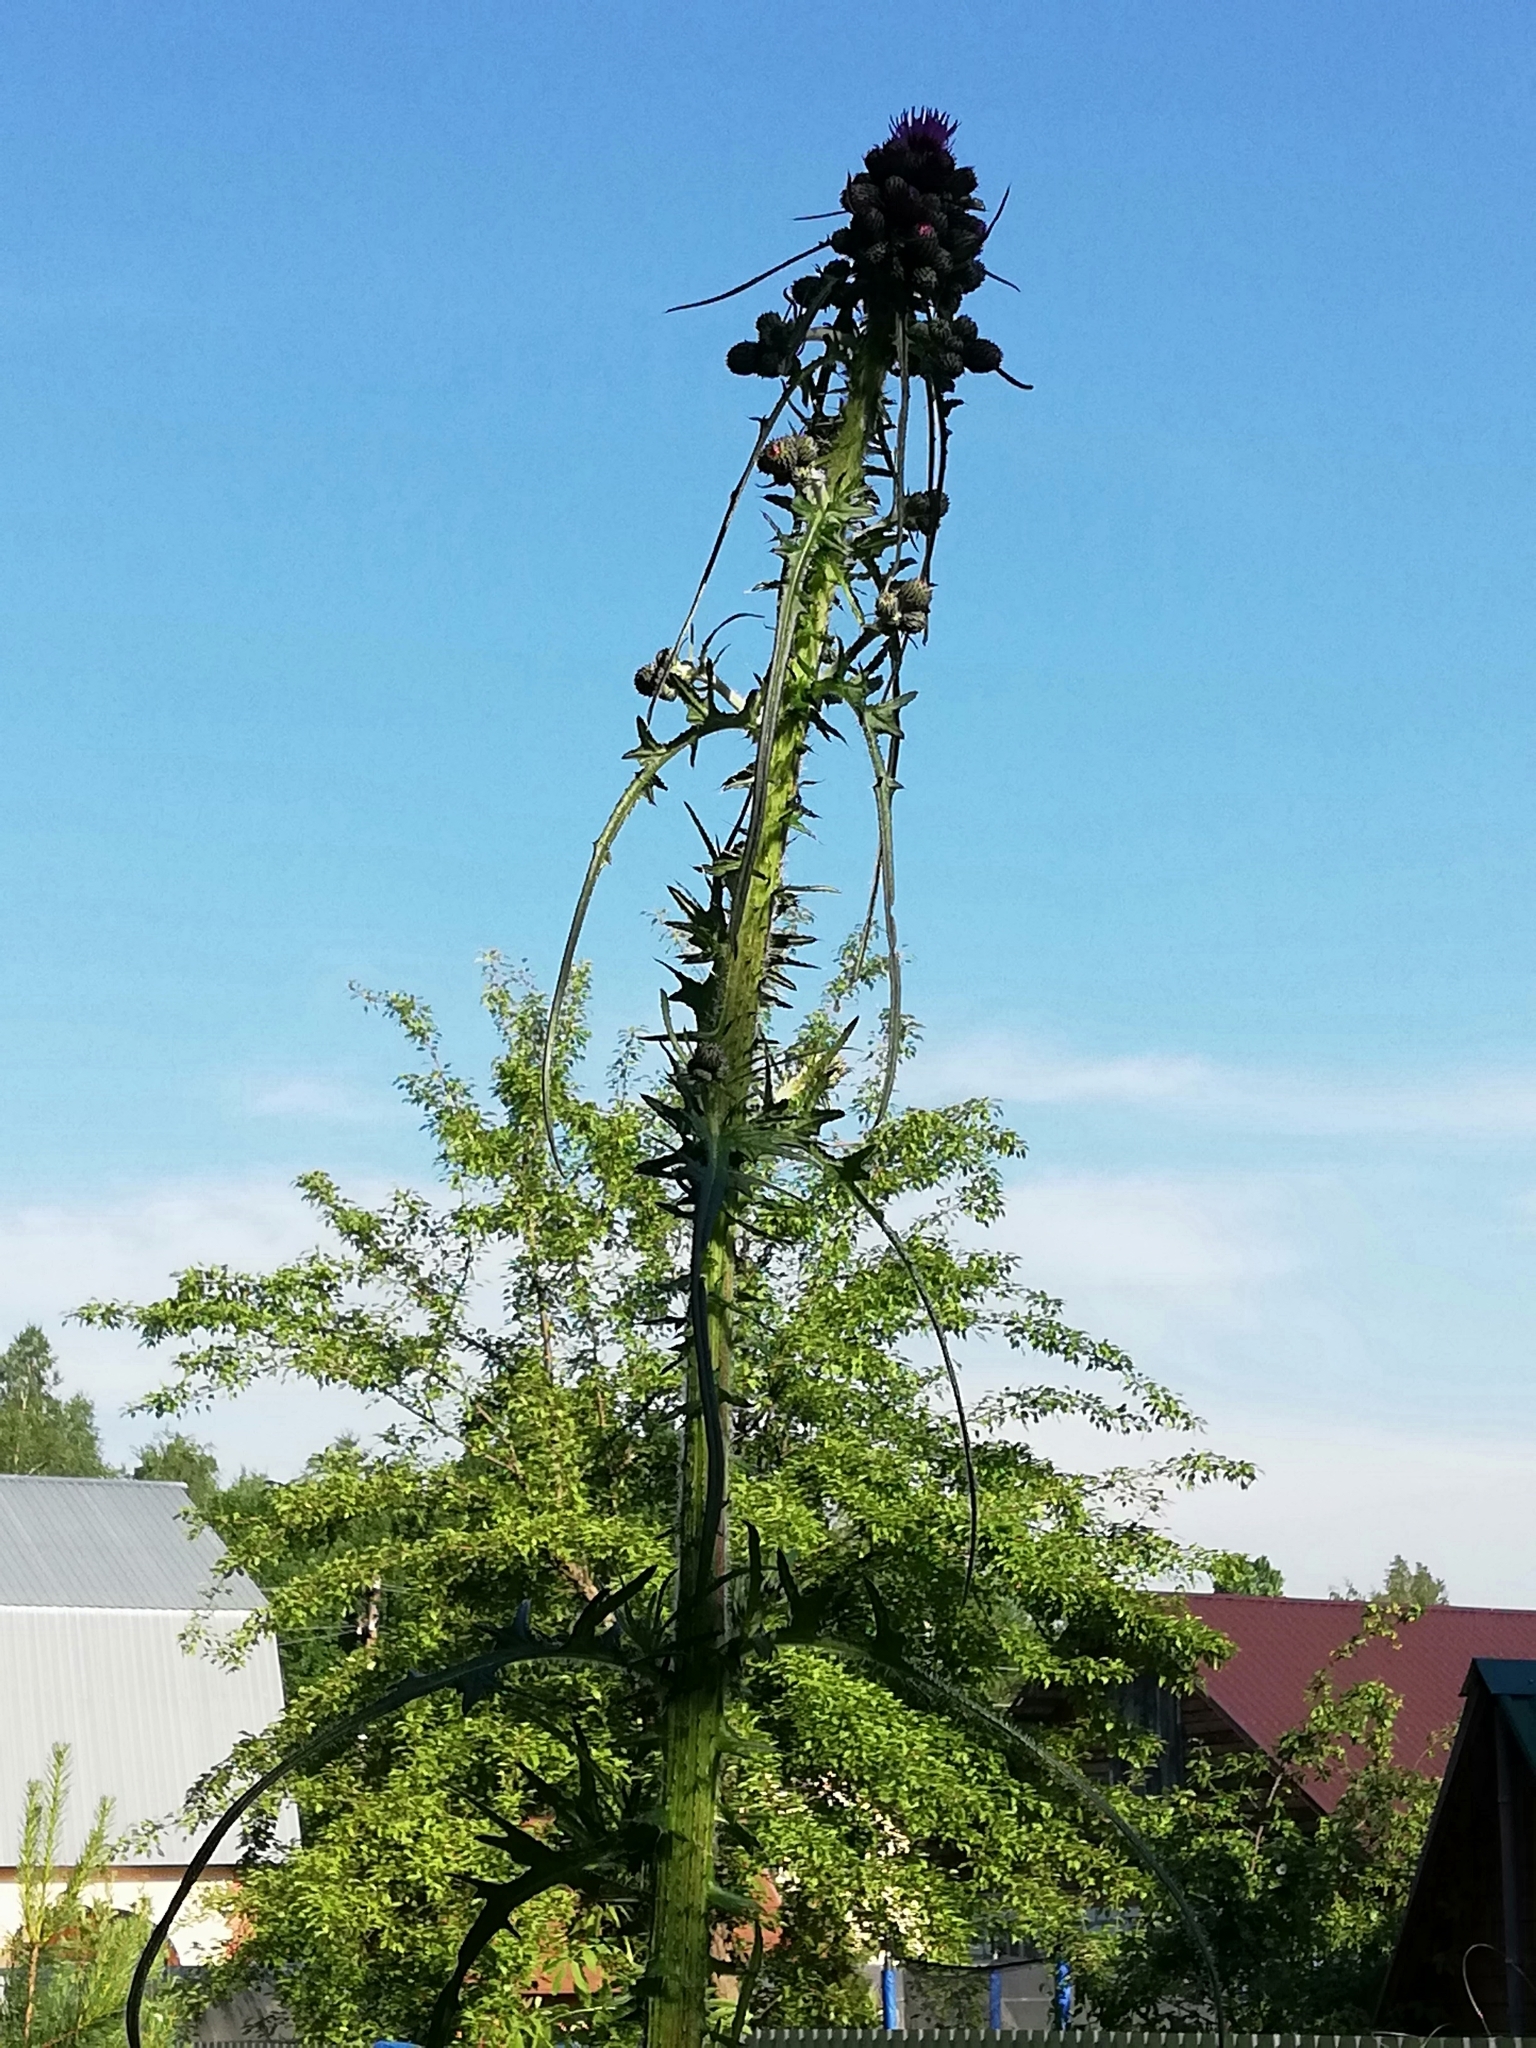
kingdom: Plantae
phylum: Tracheophyta
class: Magnoliopsida
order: Asterales
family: Asteraceae
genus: Cirsium
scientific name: Cirsium palustre
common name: Marsh thistle
